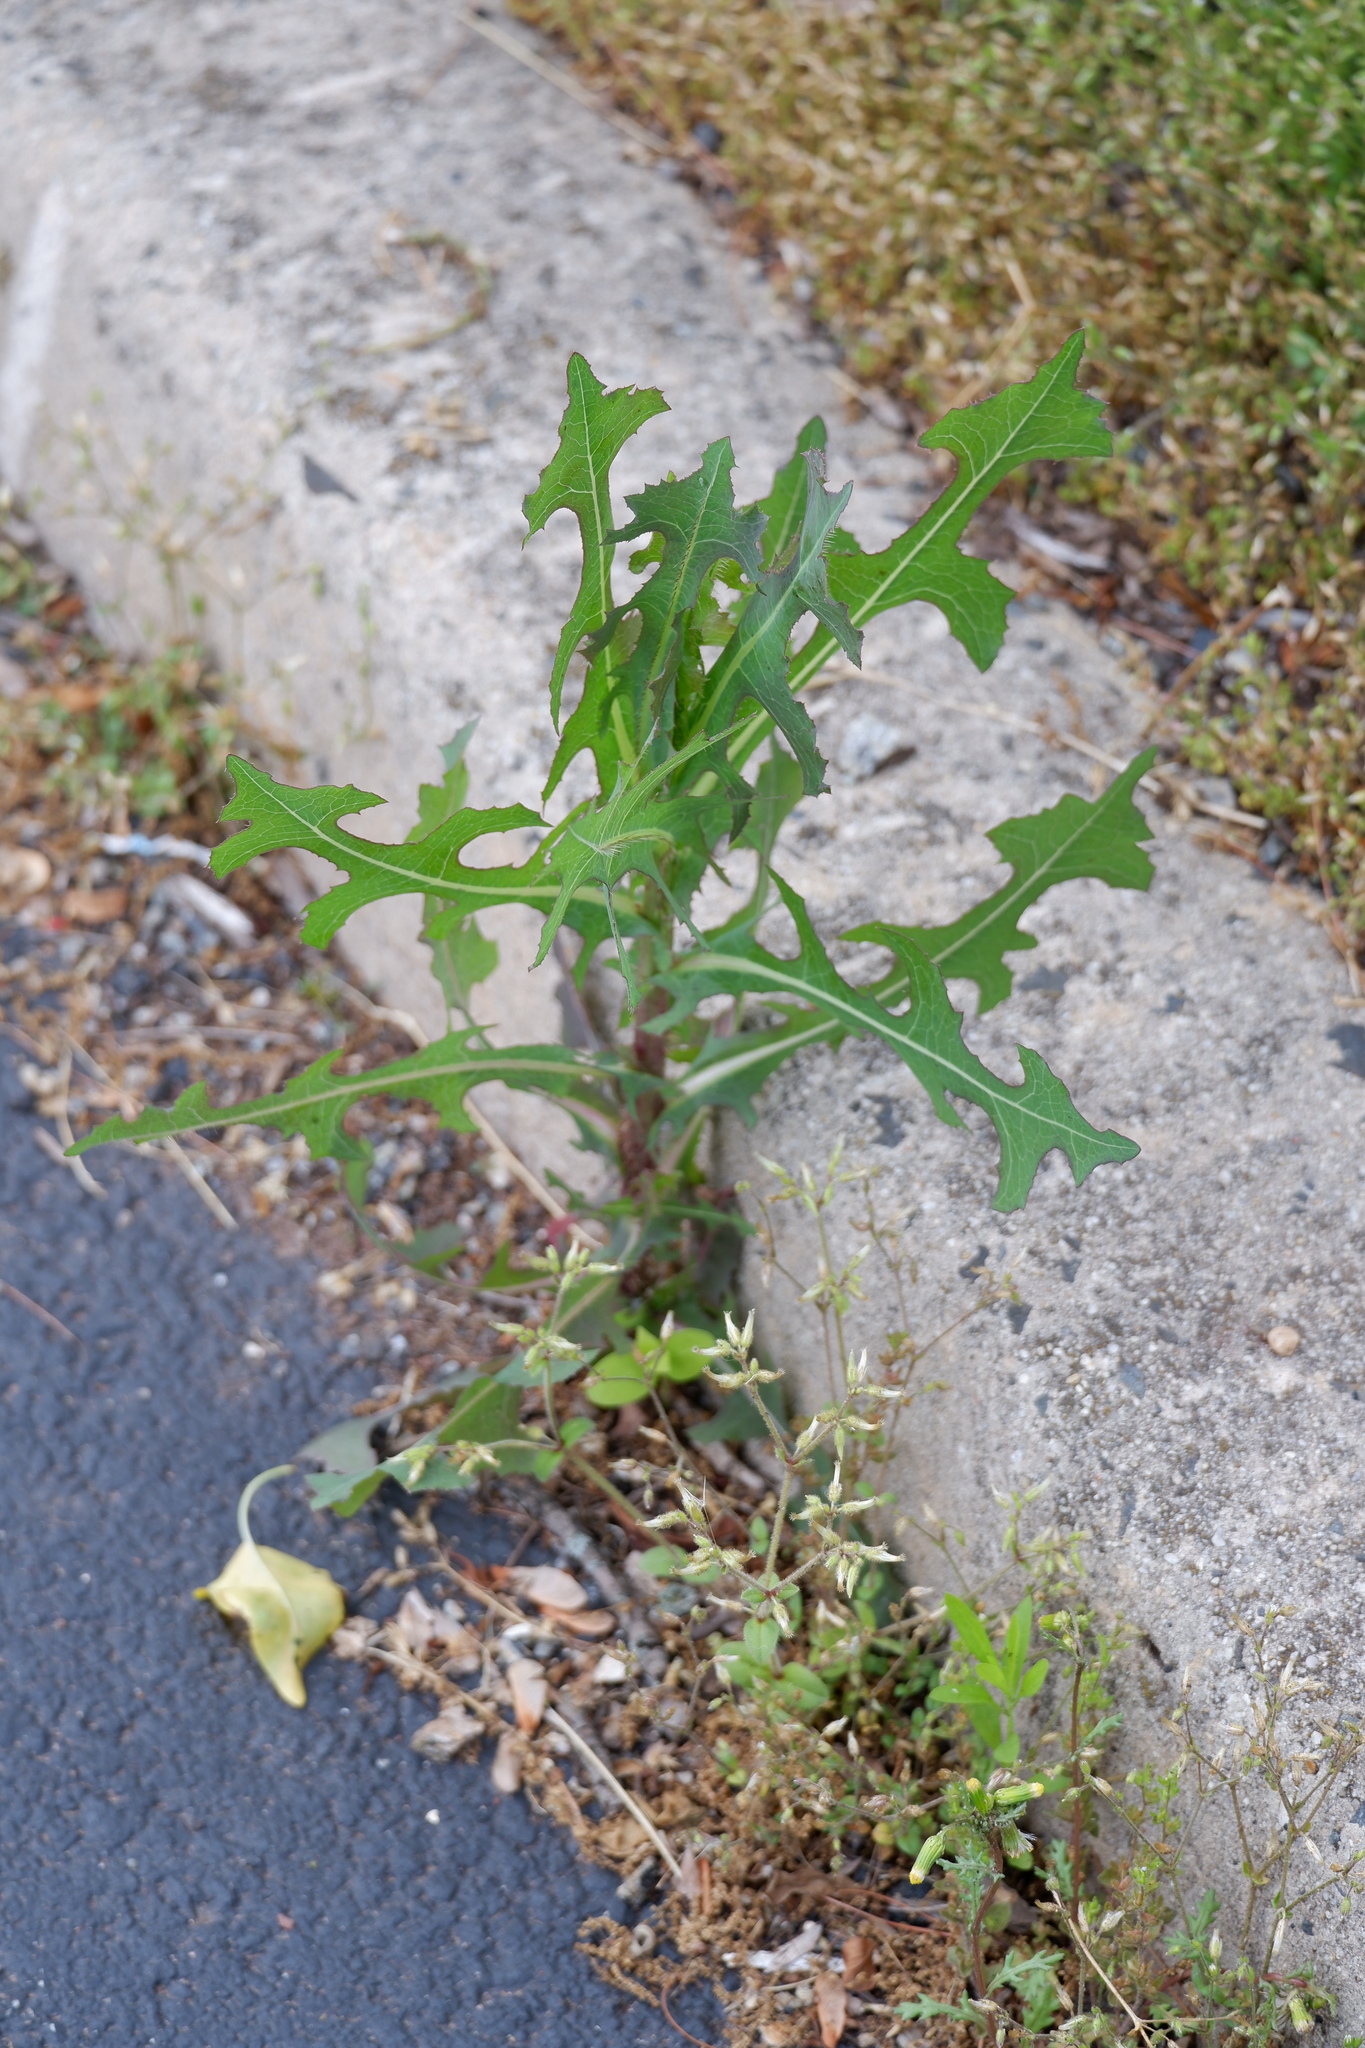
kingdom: Plantae
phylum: Tracheophyta
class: Magnoliopsida
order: Asterales
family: Asteraceae
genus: Lactuca
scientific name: Lactuca serriola
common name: Prickly lettuce
